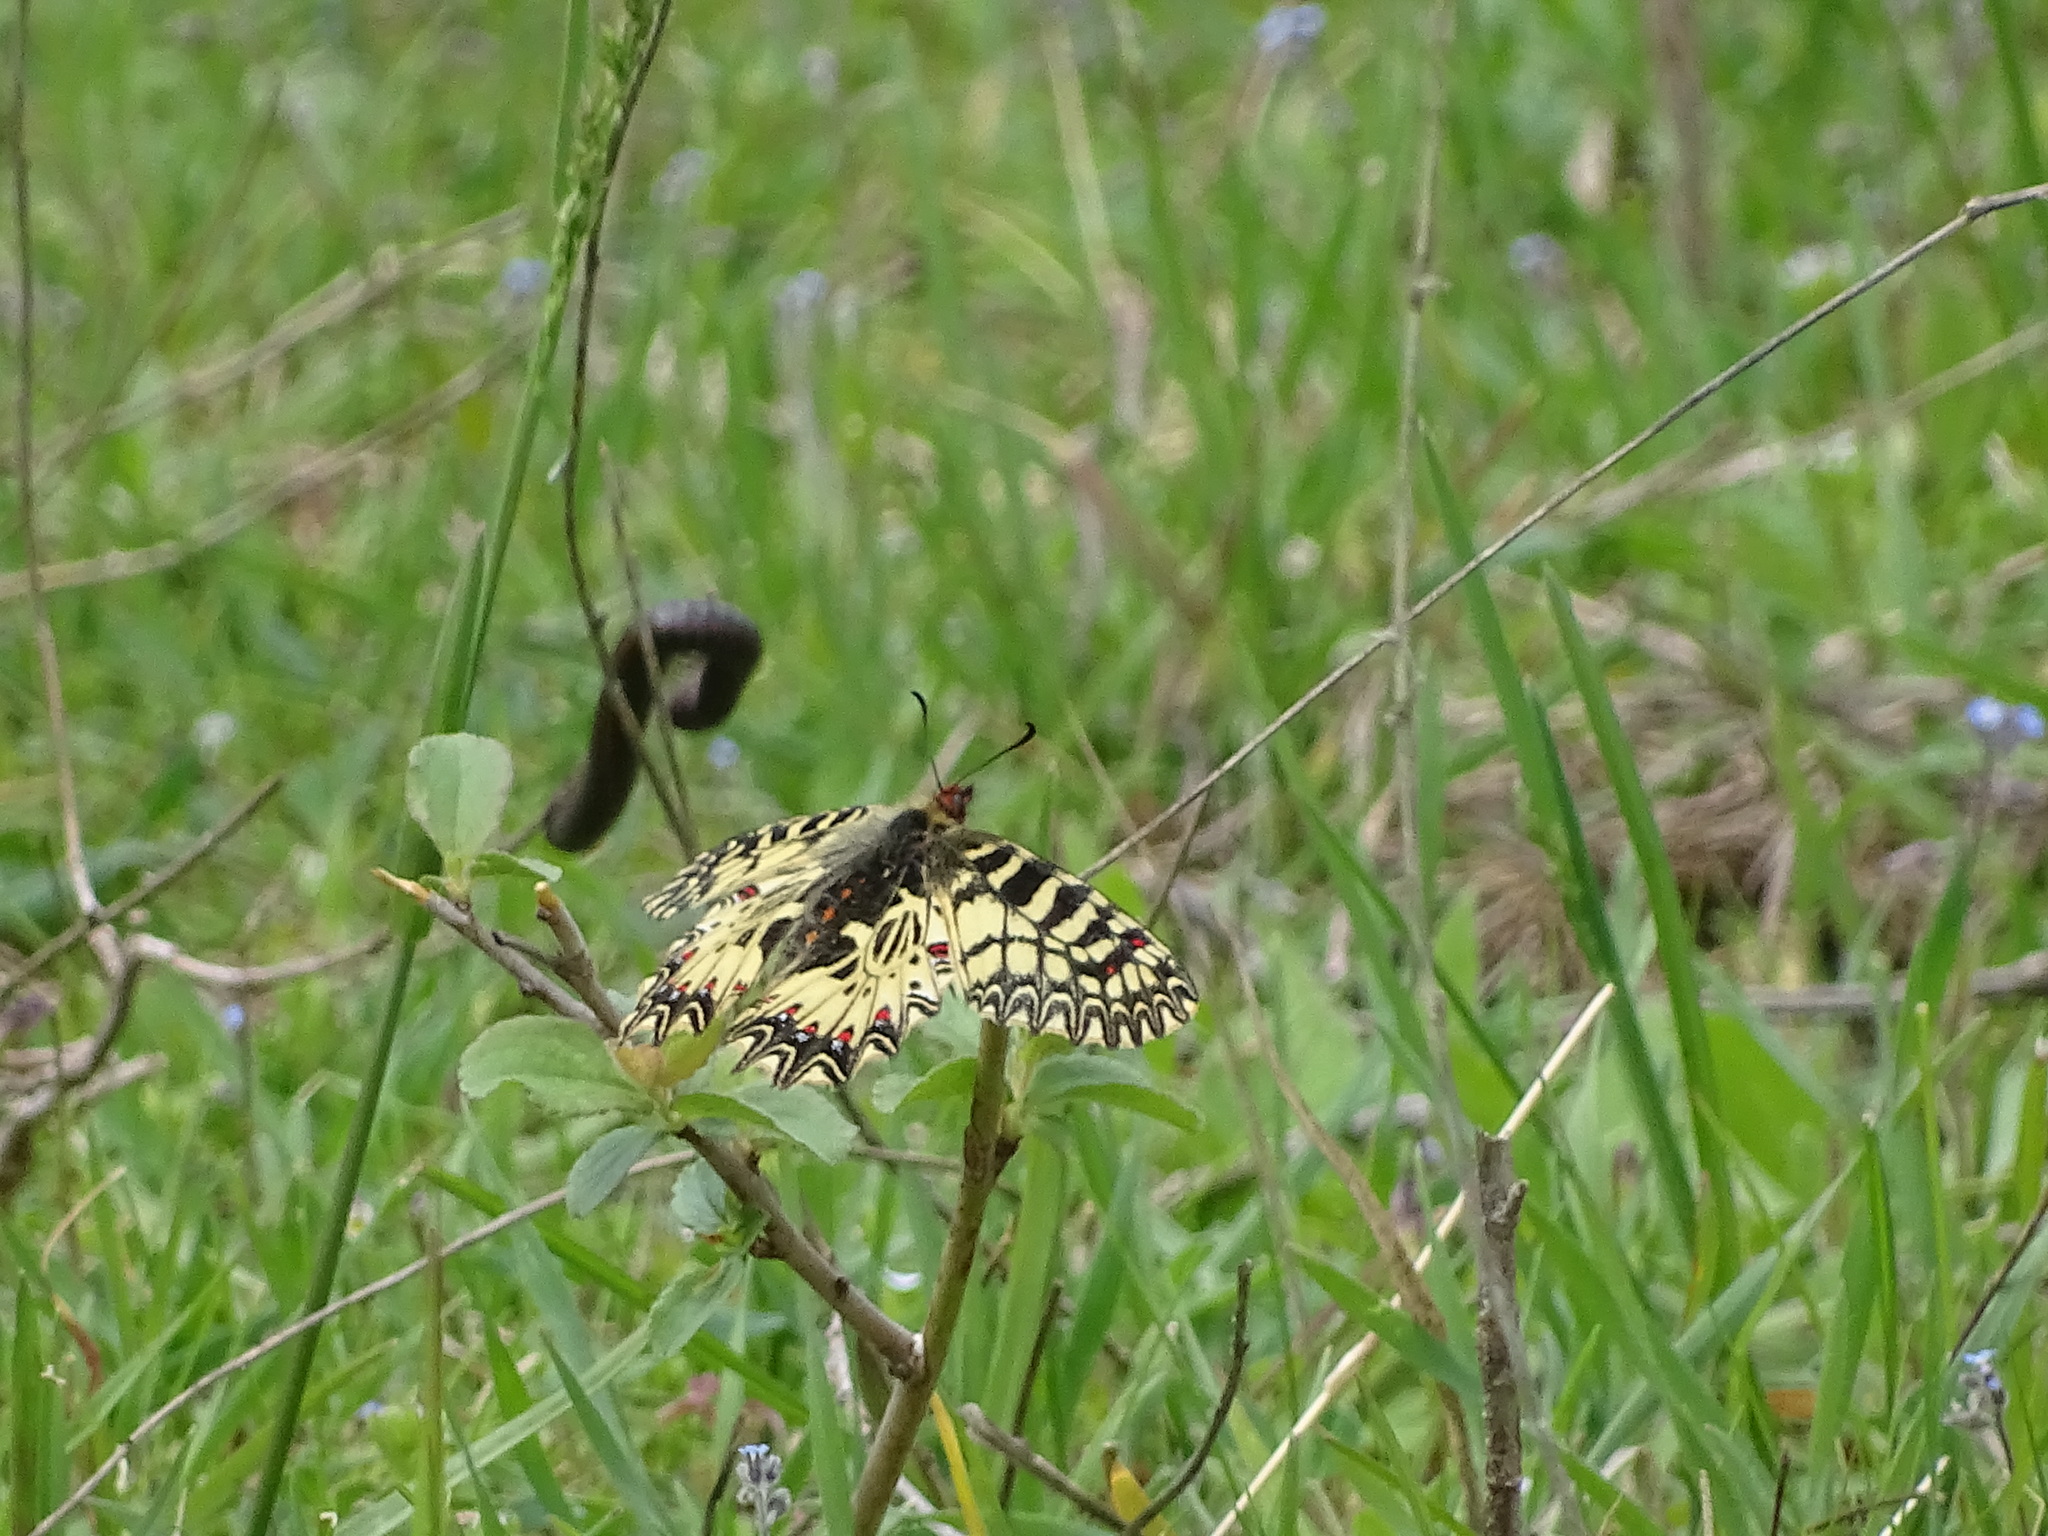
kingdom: Animalia
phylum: Arthropoda
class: Insecta
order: Lepidoptera
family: Papilionidae
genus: Zerynthia
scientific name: Zerynthia polyxena
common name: Southern festoon
